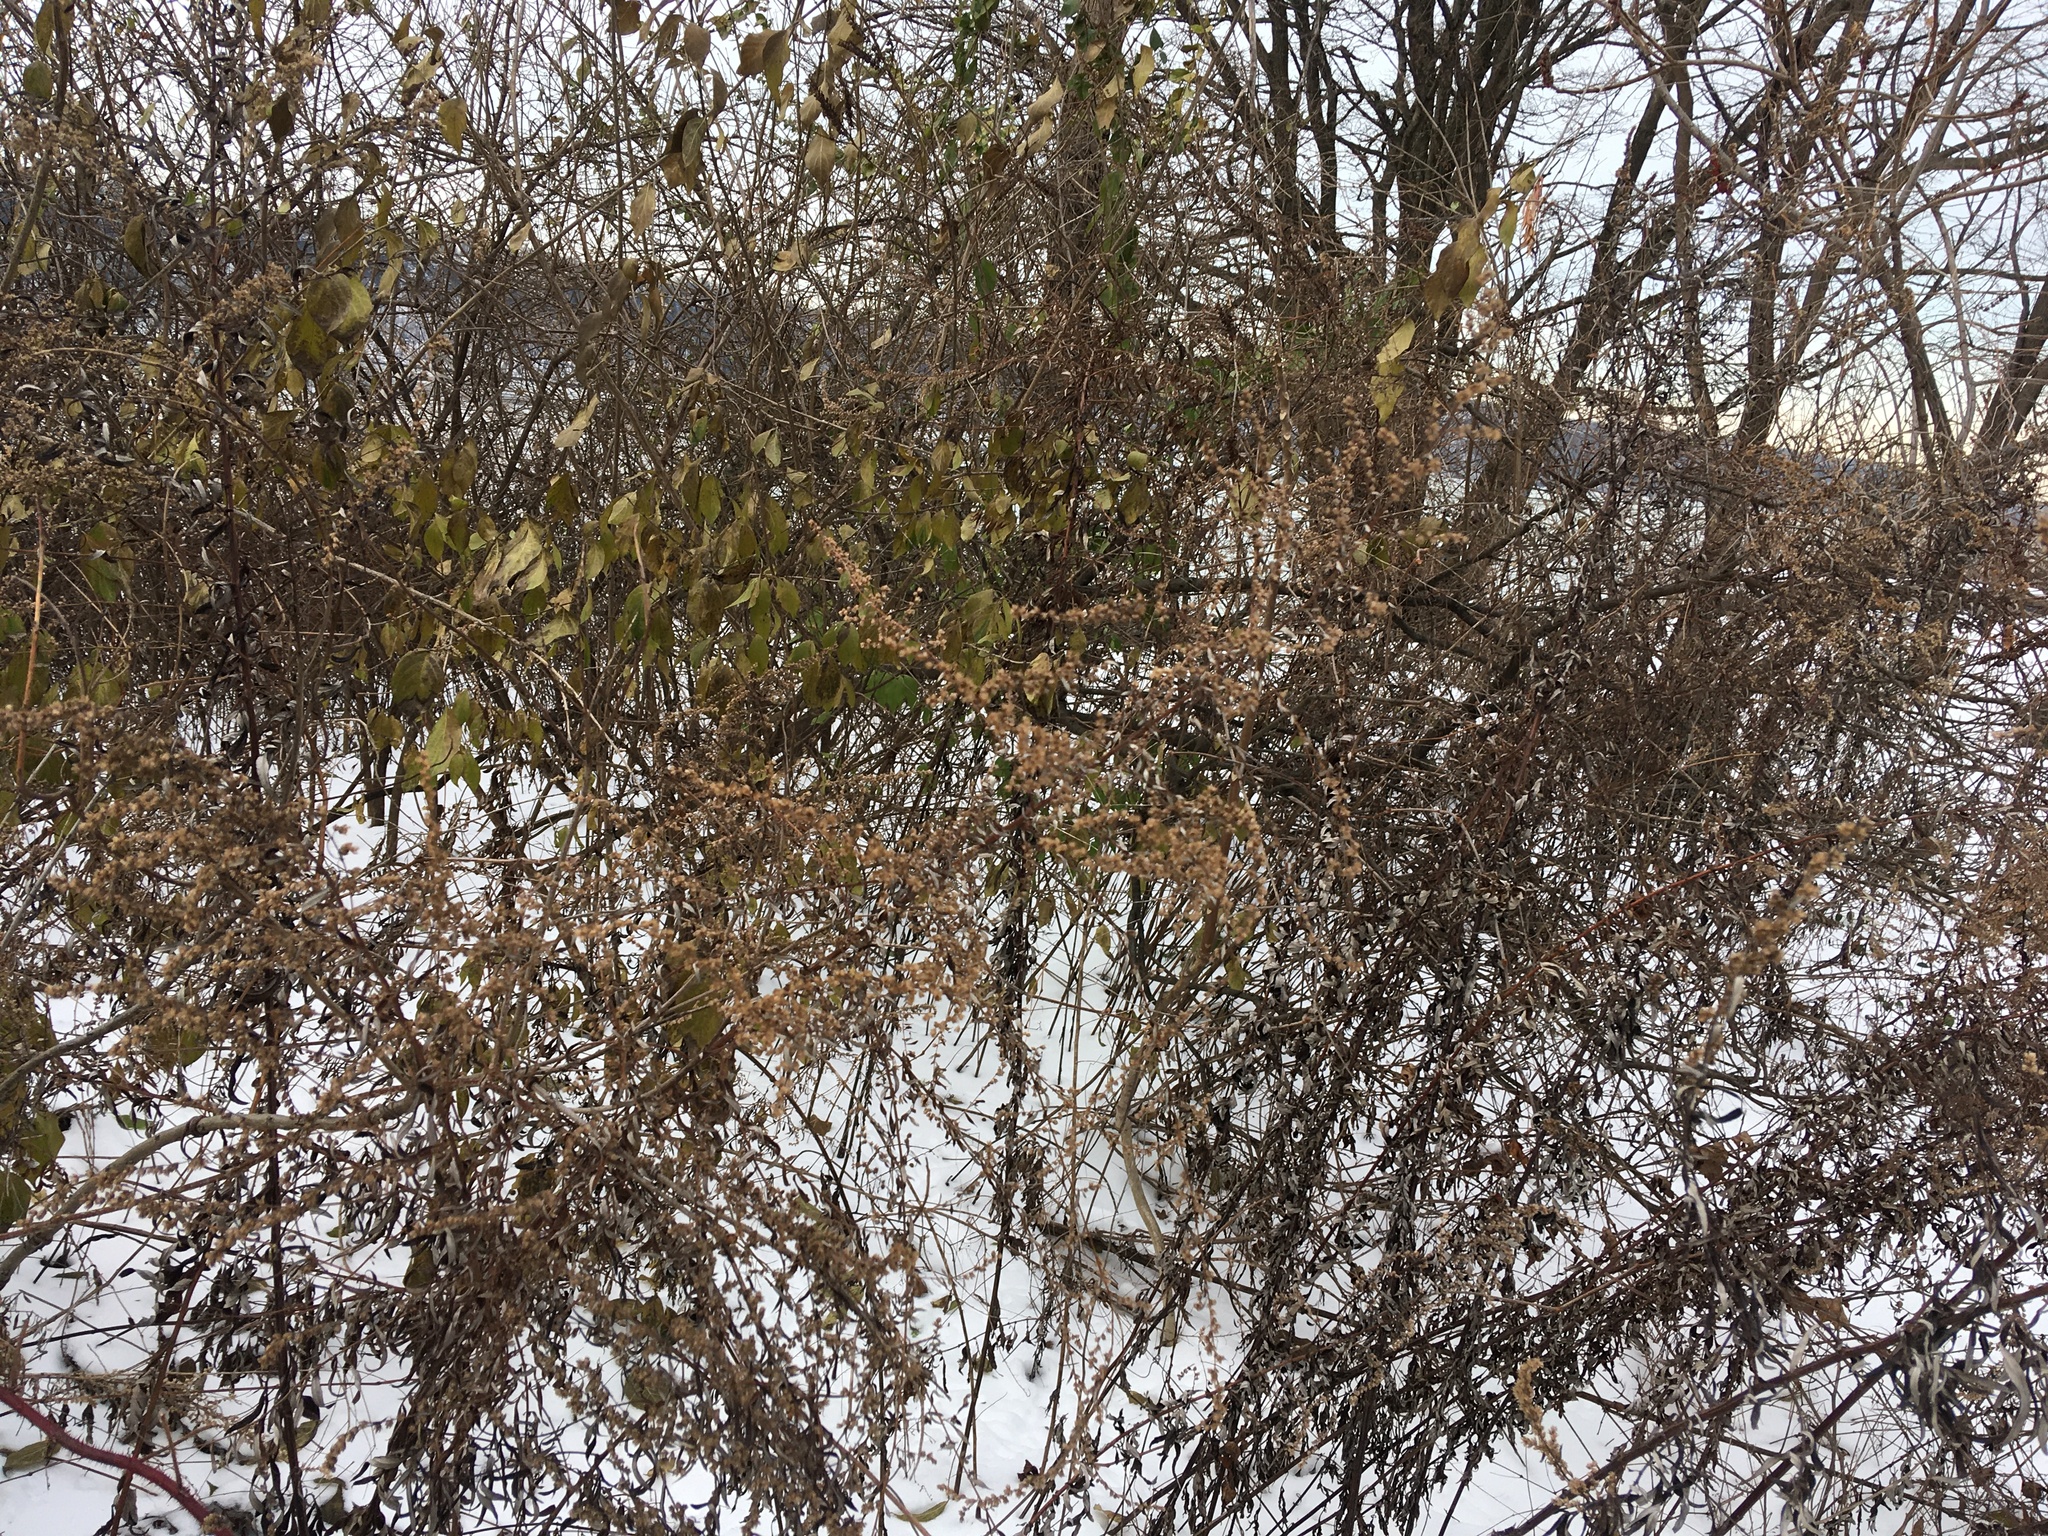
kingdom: Plantae
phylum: Tracheophyta
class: Magnoliopsida
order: Asterales
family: Asteraceae
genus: Artemisia
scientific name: Artemisia vulgaris
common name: Mugwort
